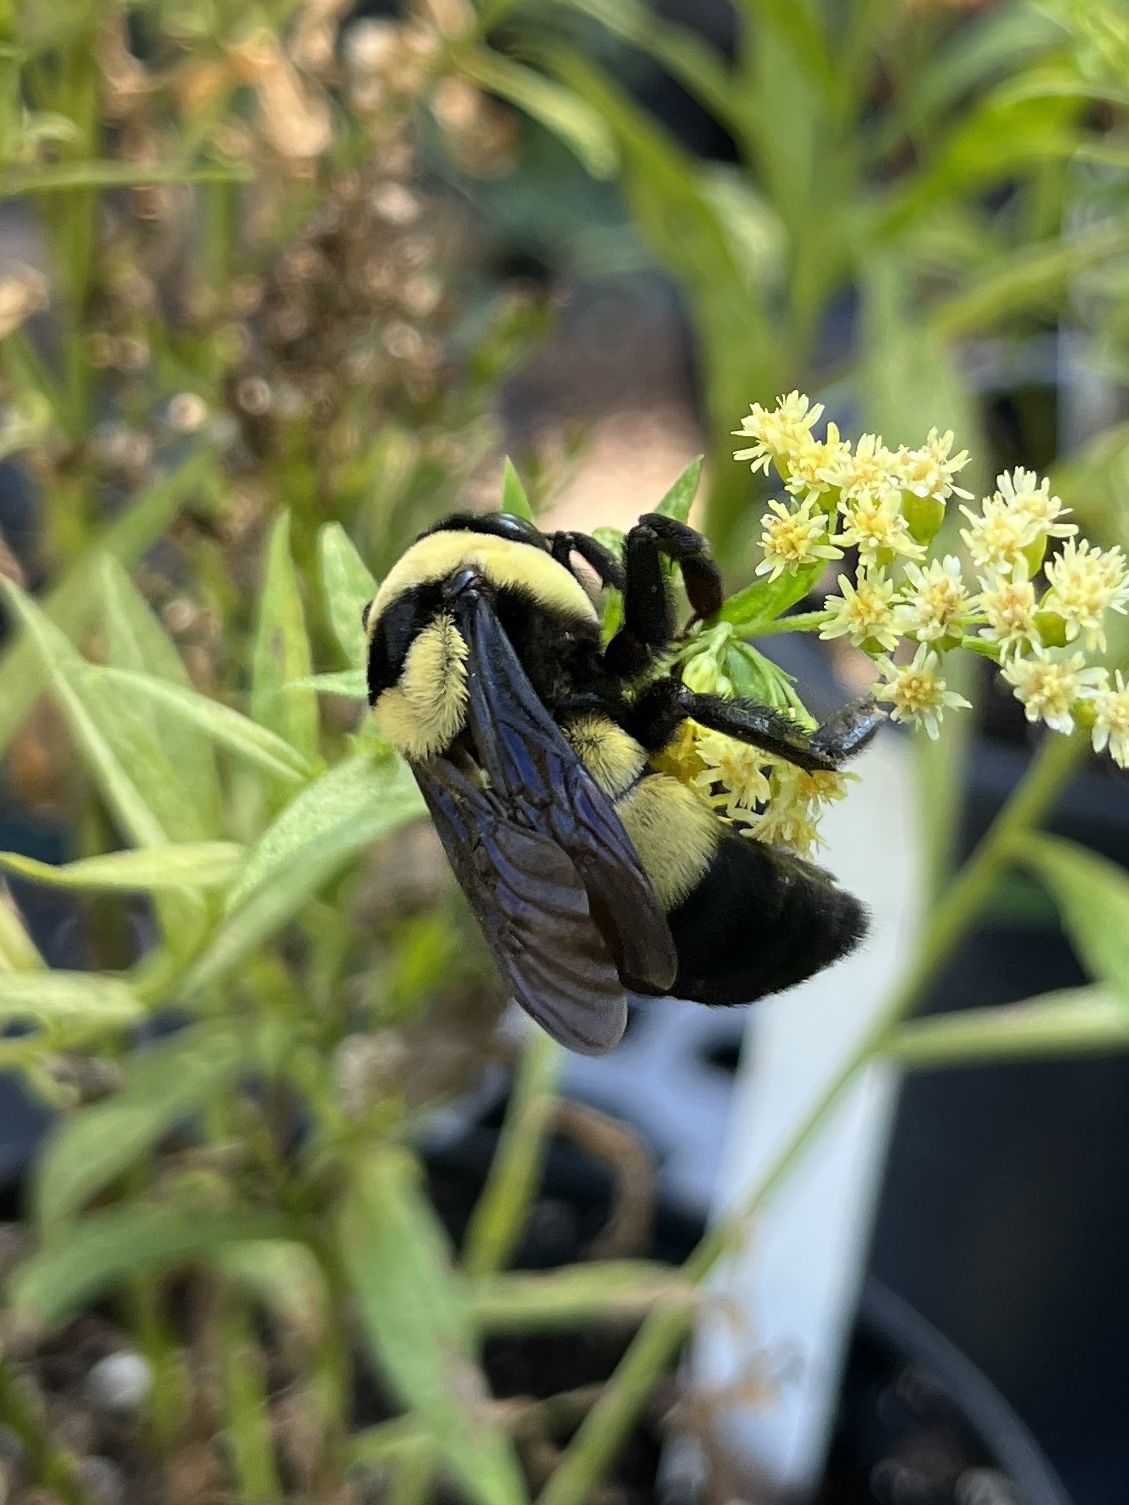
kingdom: Animalia
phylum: Arthropoda
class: Insecta
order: Hymenoptera
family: Apidae
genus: Bombus
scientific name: Bombus fraternus
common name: Southern plains bumble bee
